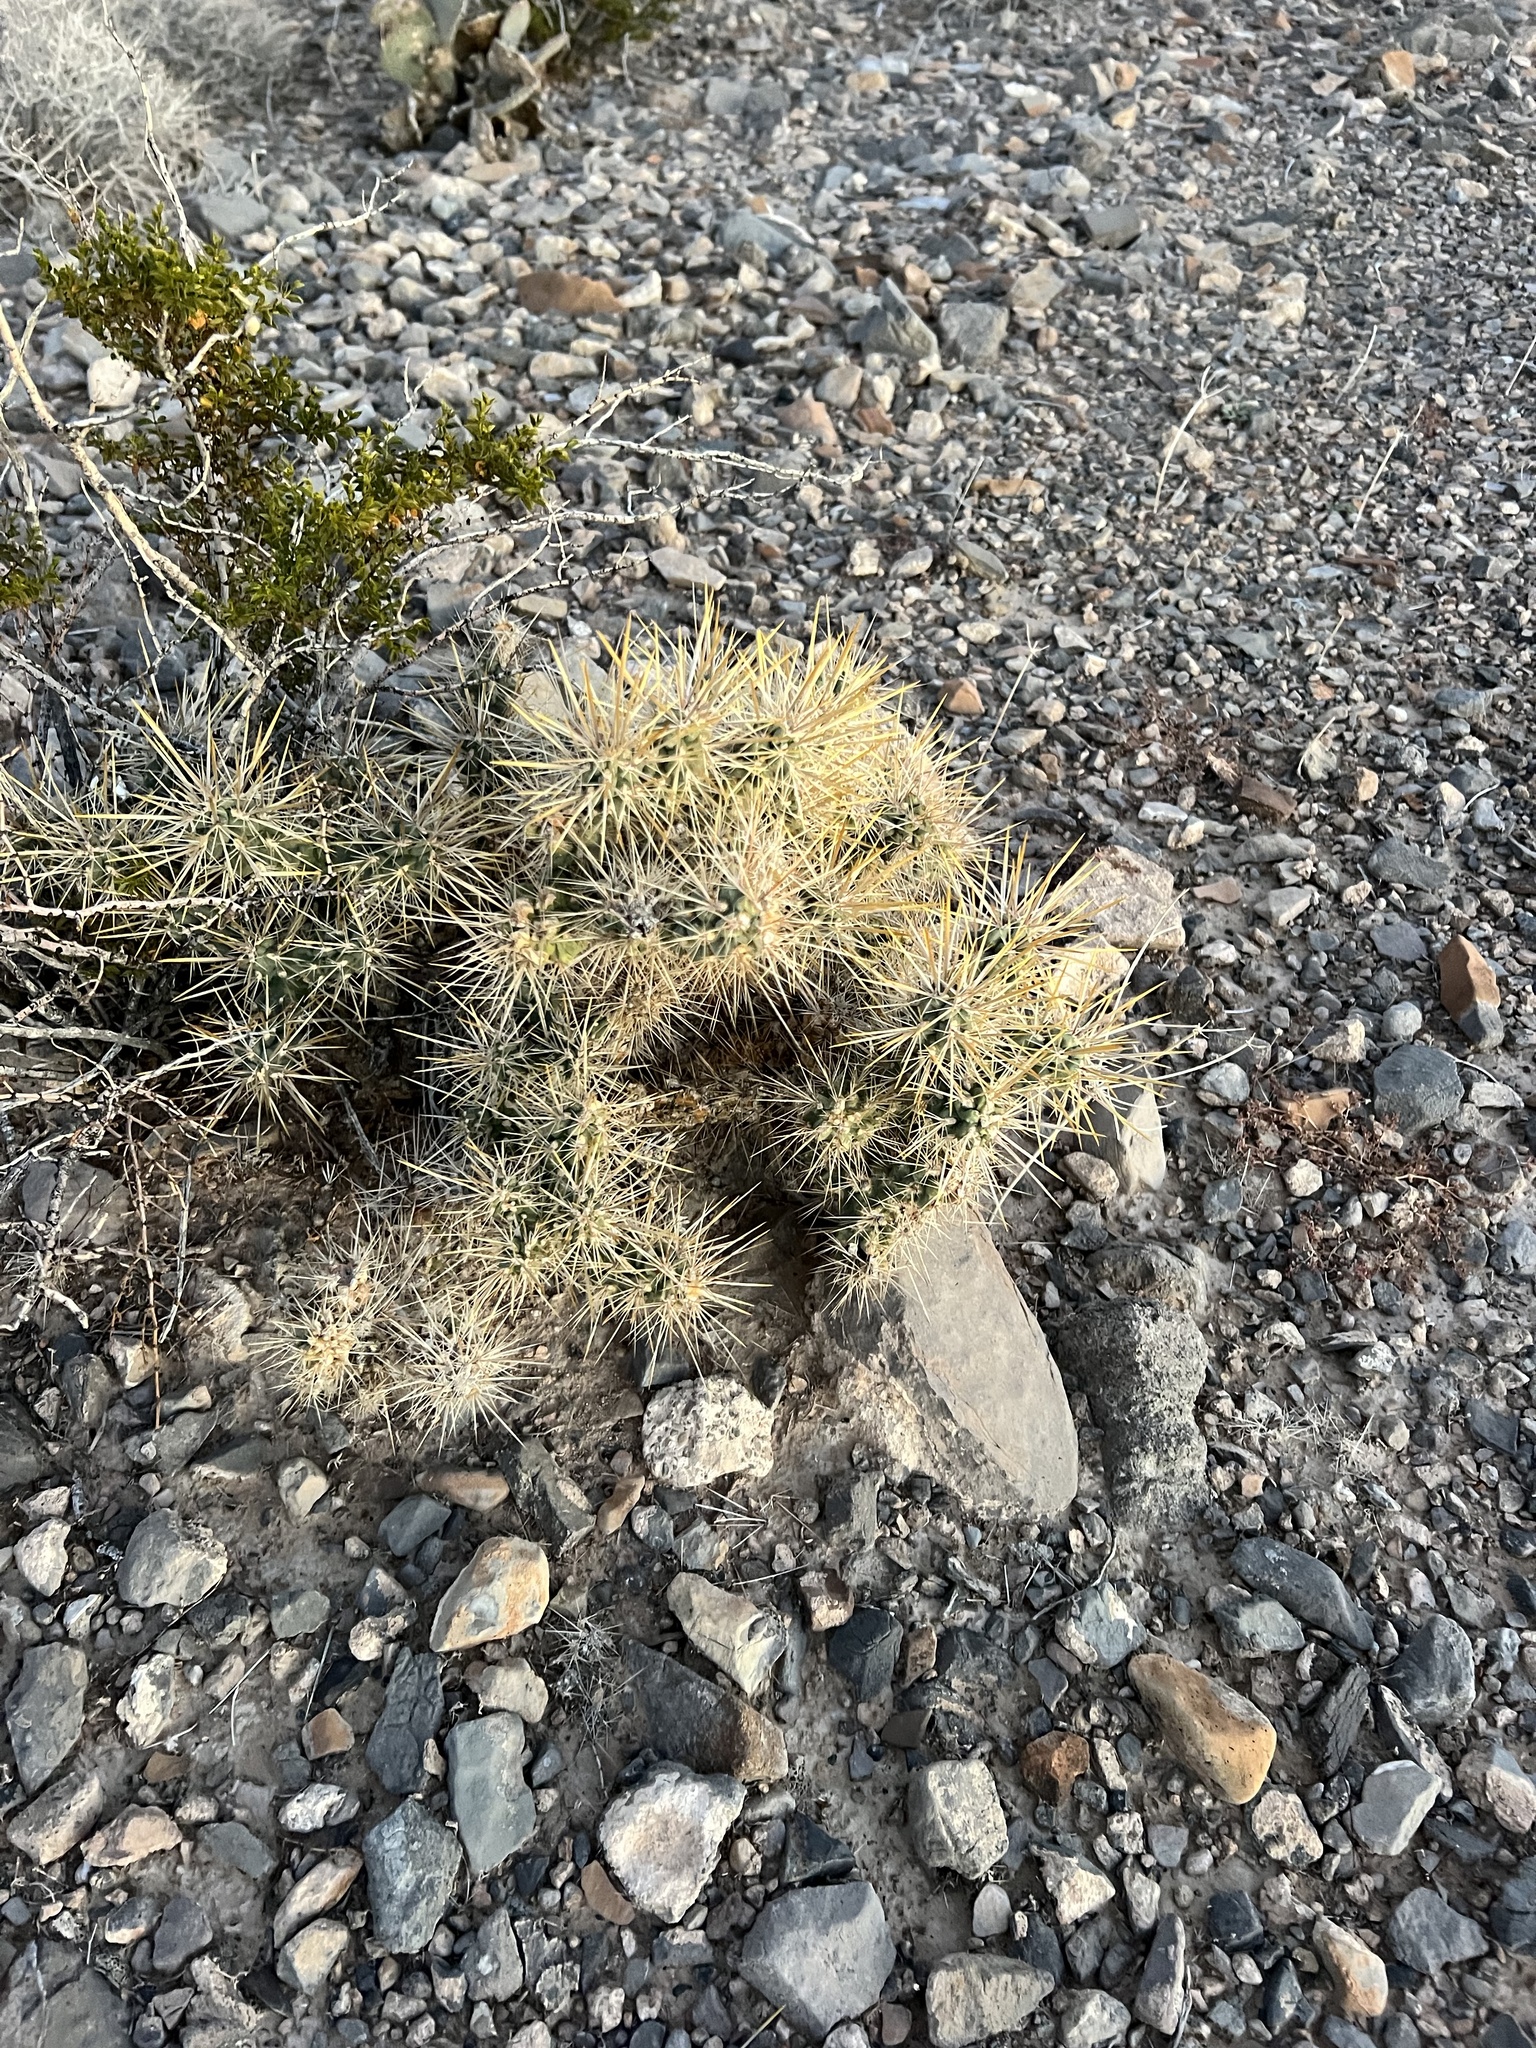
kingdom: Plantae
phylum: Tracheophyta
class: Magnoliopsida
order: Caryophyllales
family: Cactaceae
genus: Cylindropuntia
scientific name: Cylindropuntia echinocarpa
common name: Ground cholla
